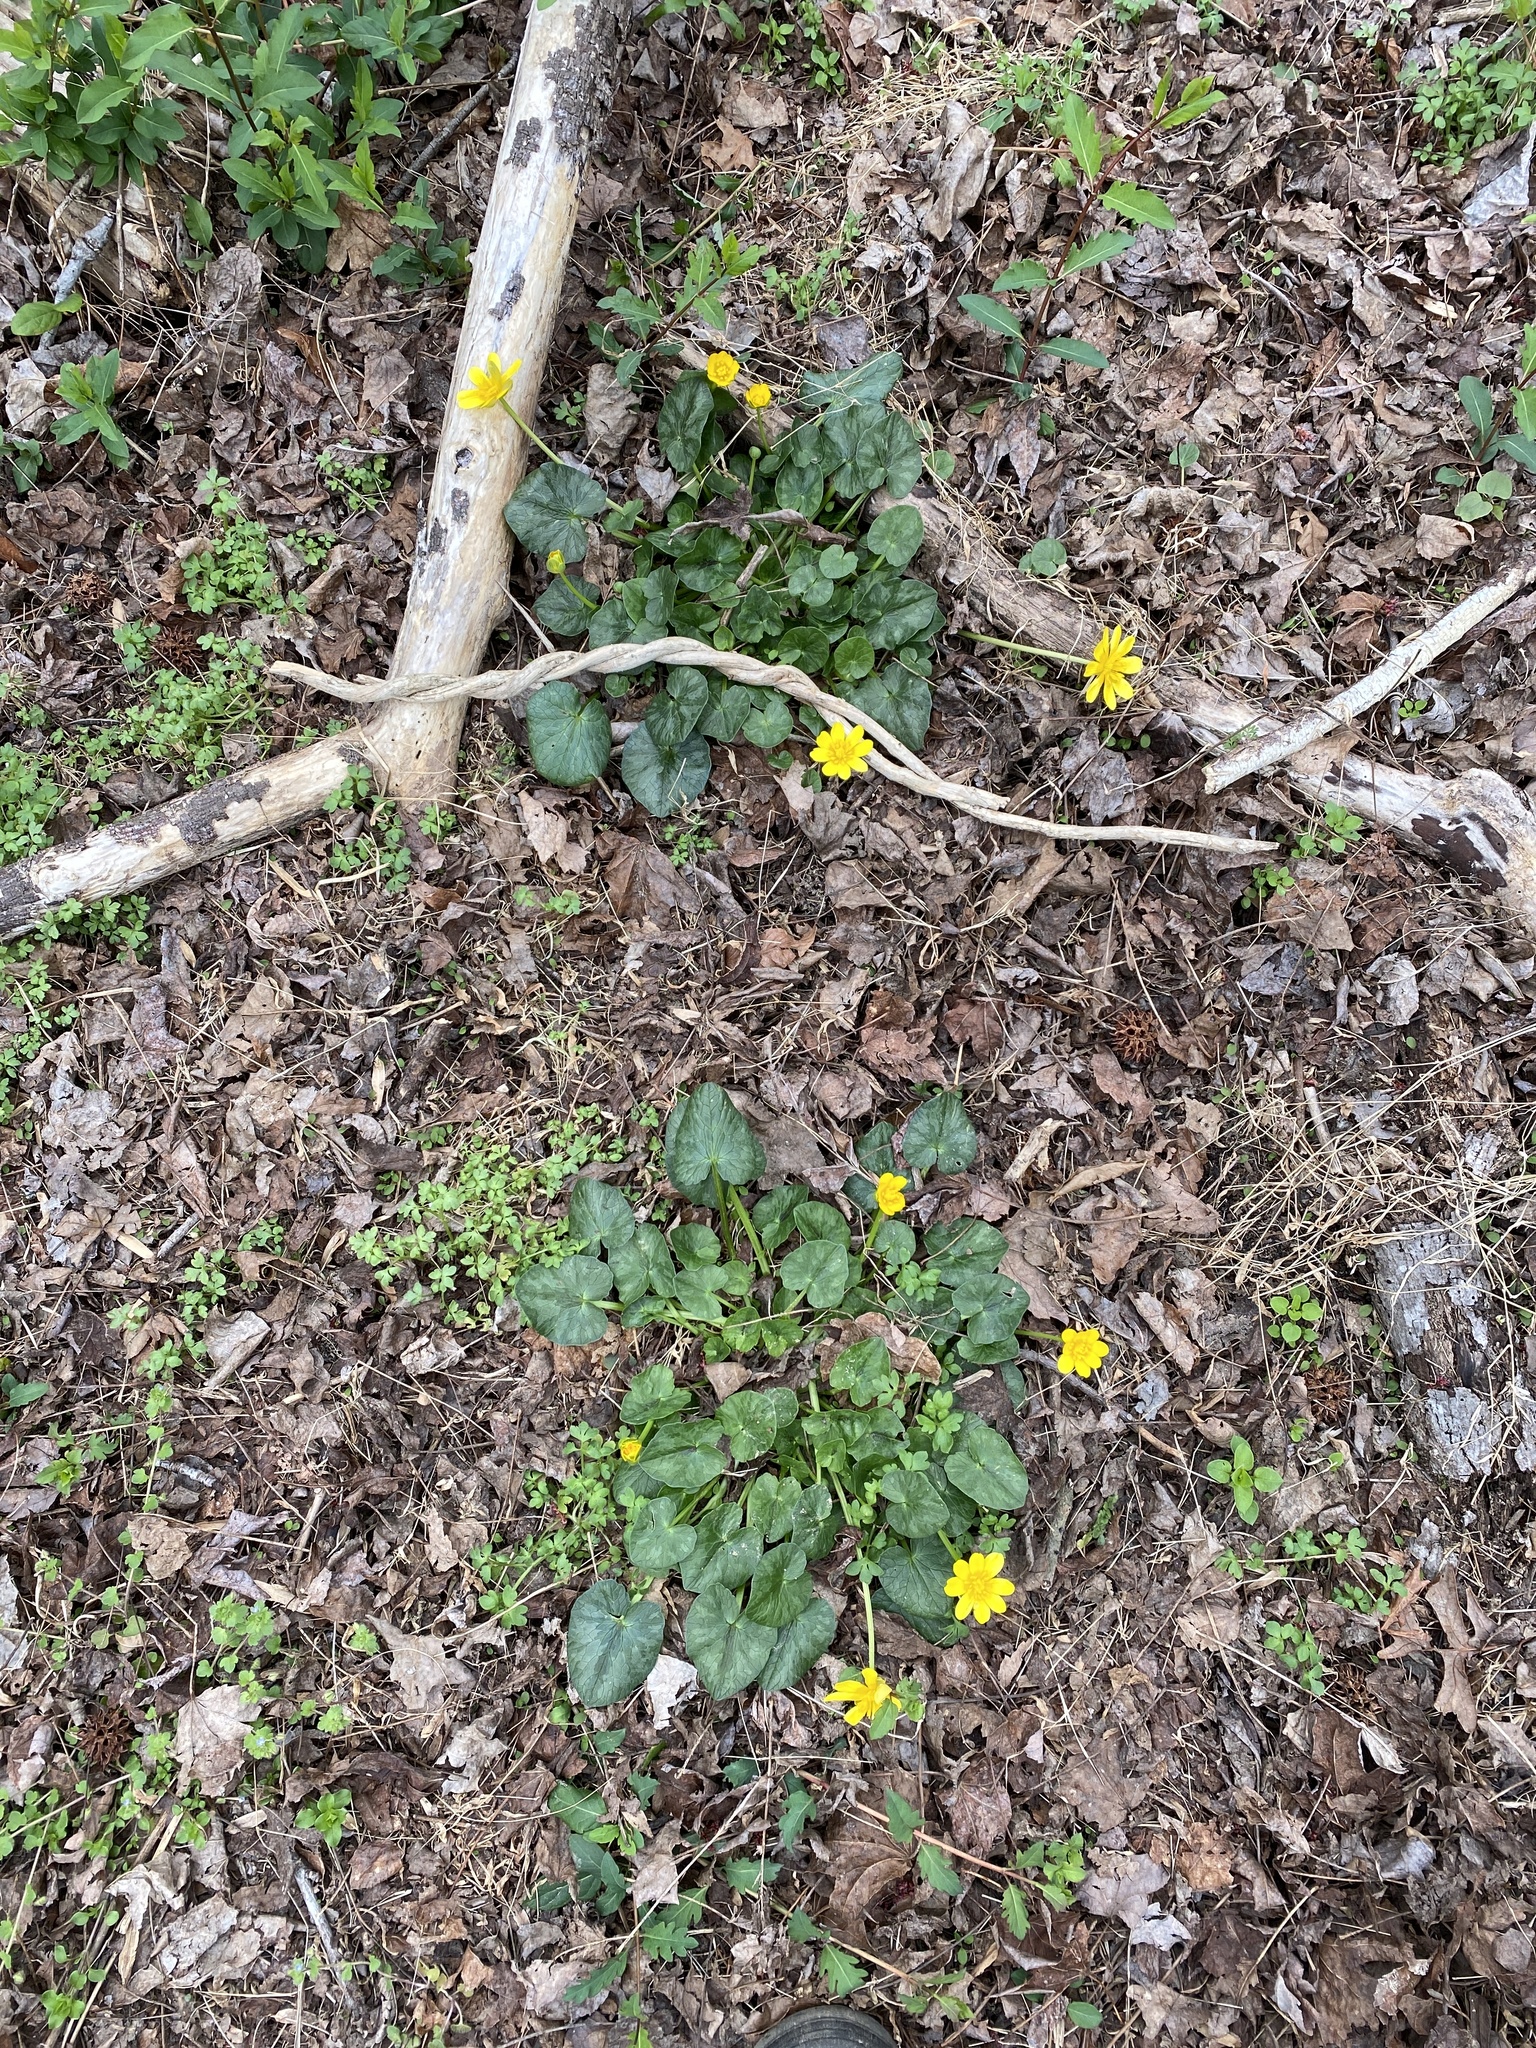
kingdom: Plantae
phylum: Tracheophyta
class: Magnoliopsida
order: Ranunculales
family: Ranunculaceae
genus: Ficaria
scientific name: Ficaria verna
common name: Lesser celandine
